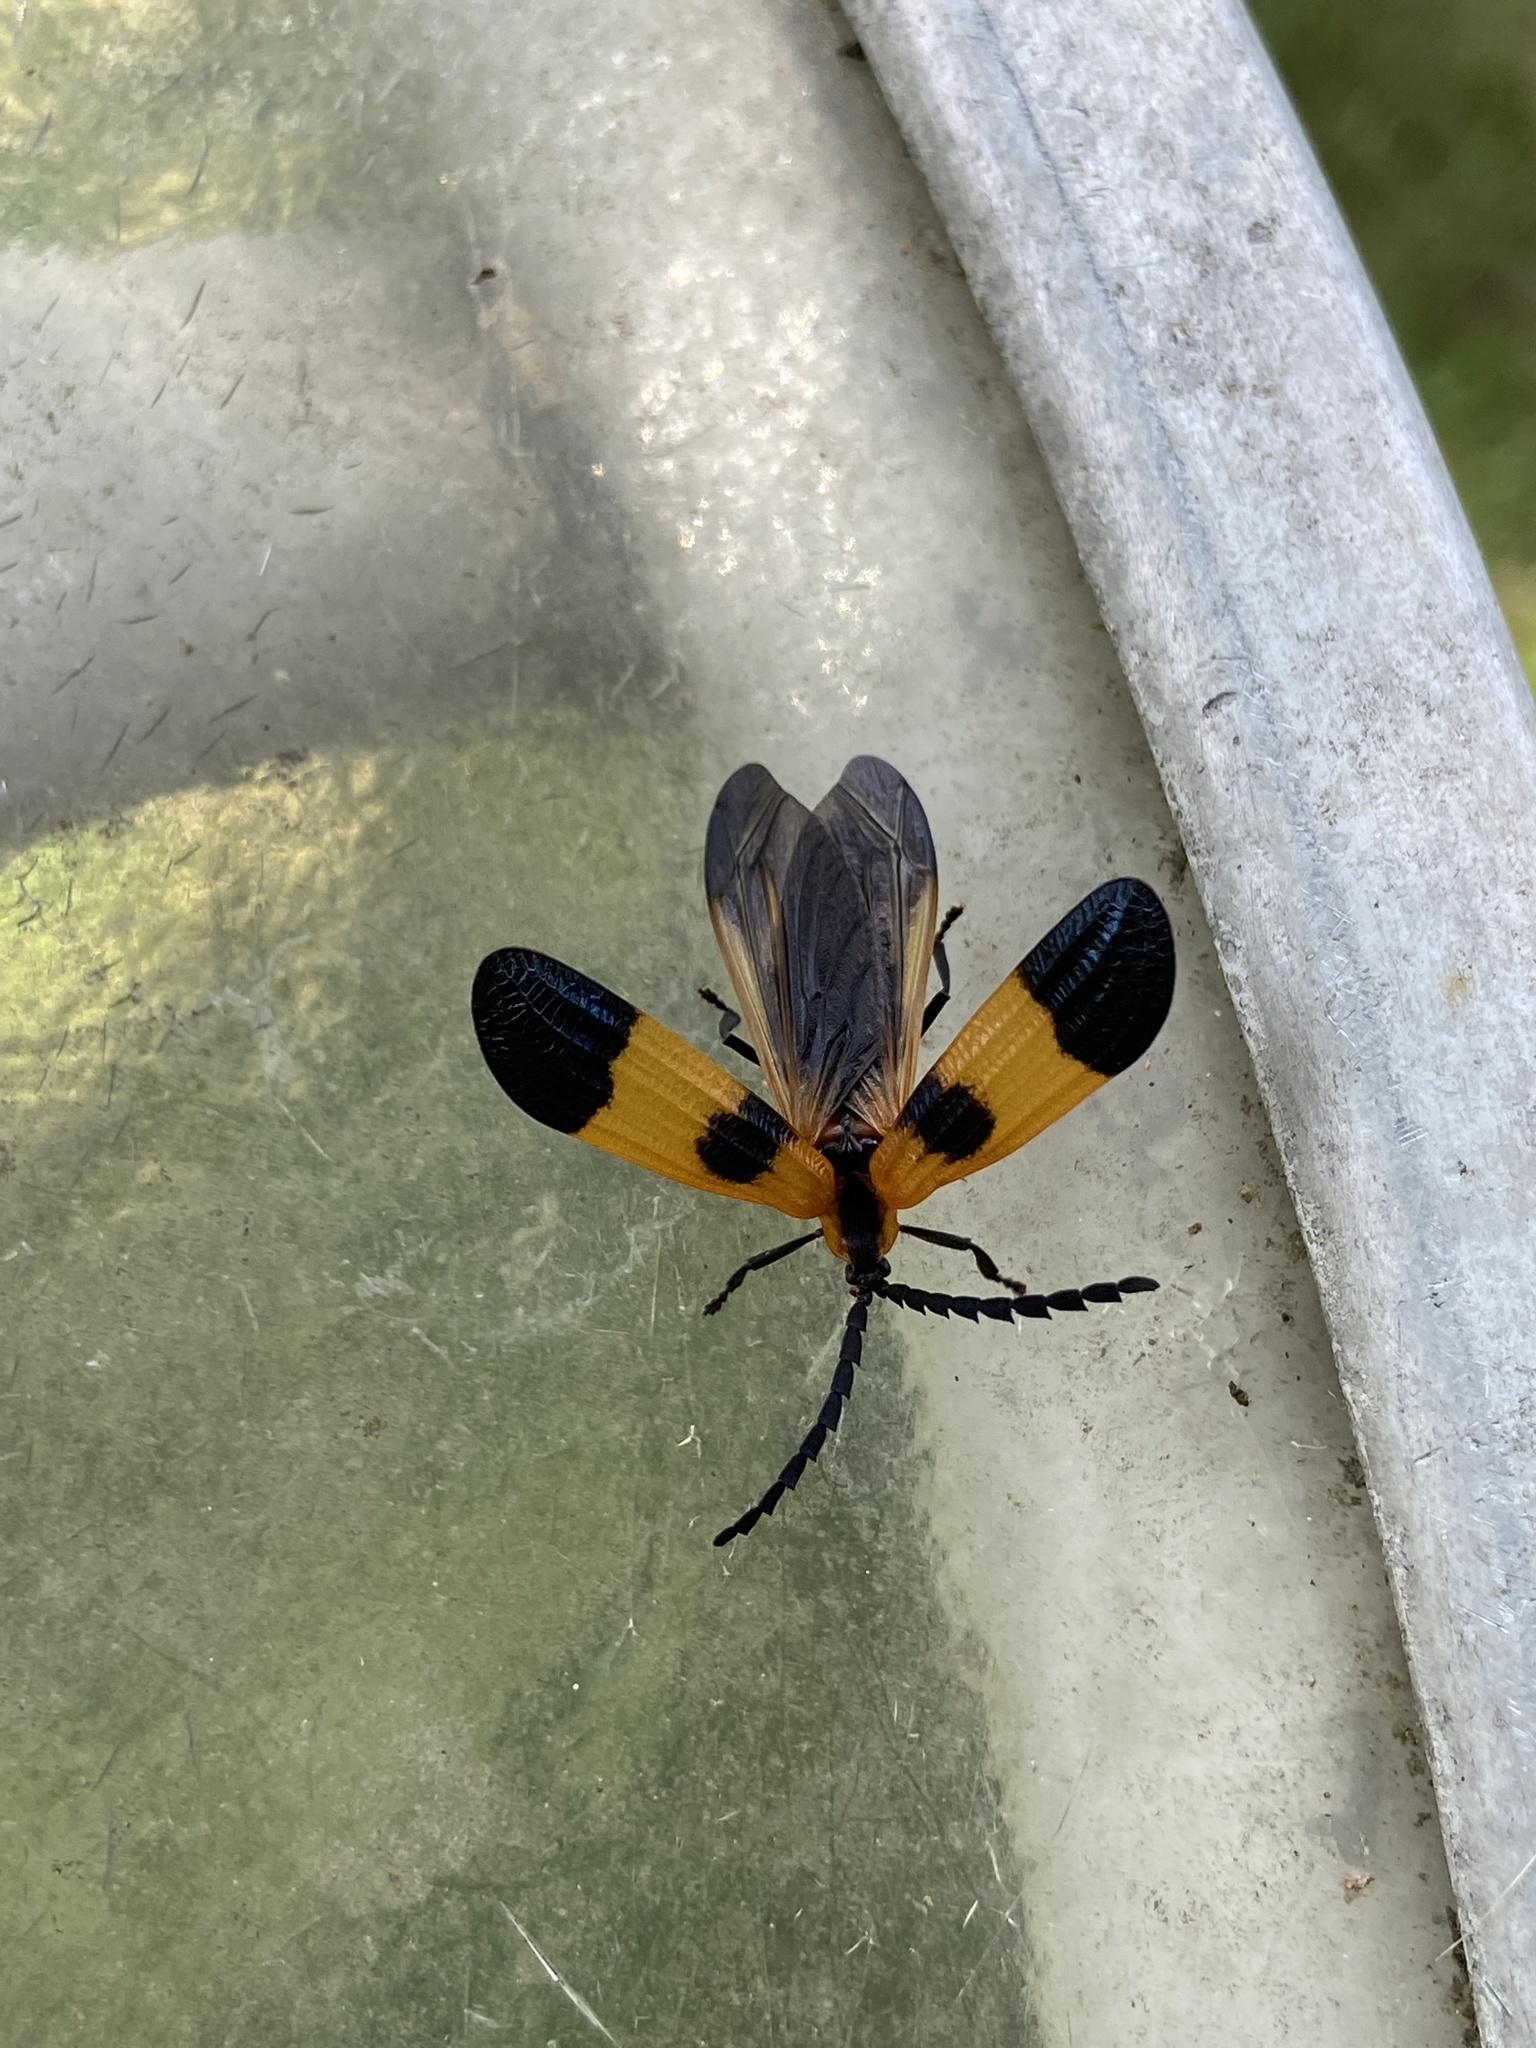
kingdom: Animalia
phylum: Arthropoda
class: Insecta
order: Coleoptera
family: Lycidae
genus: Calopteron
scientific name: Calopteron terminale
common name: End band net-winged beetle
